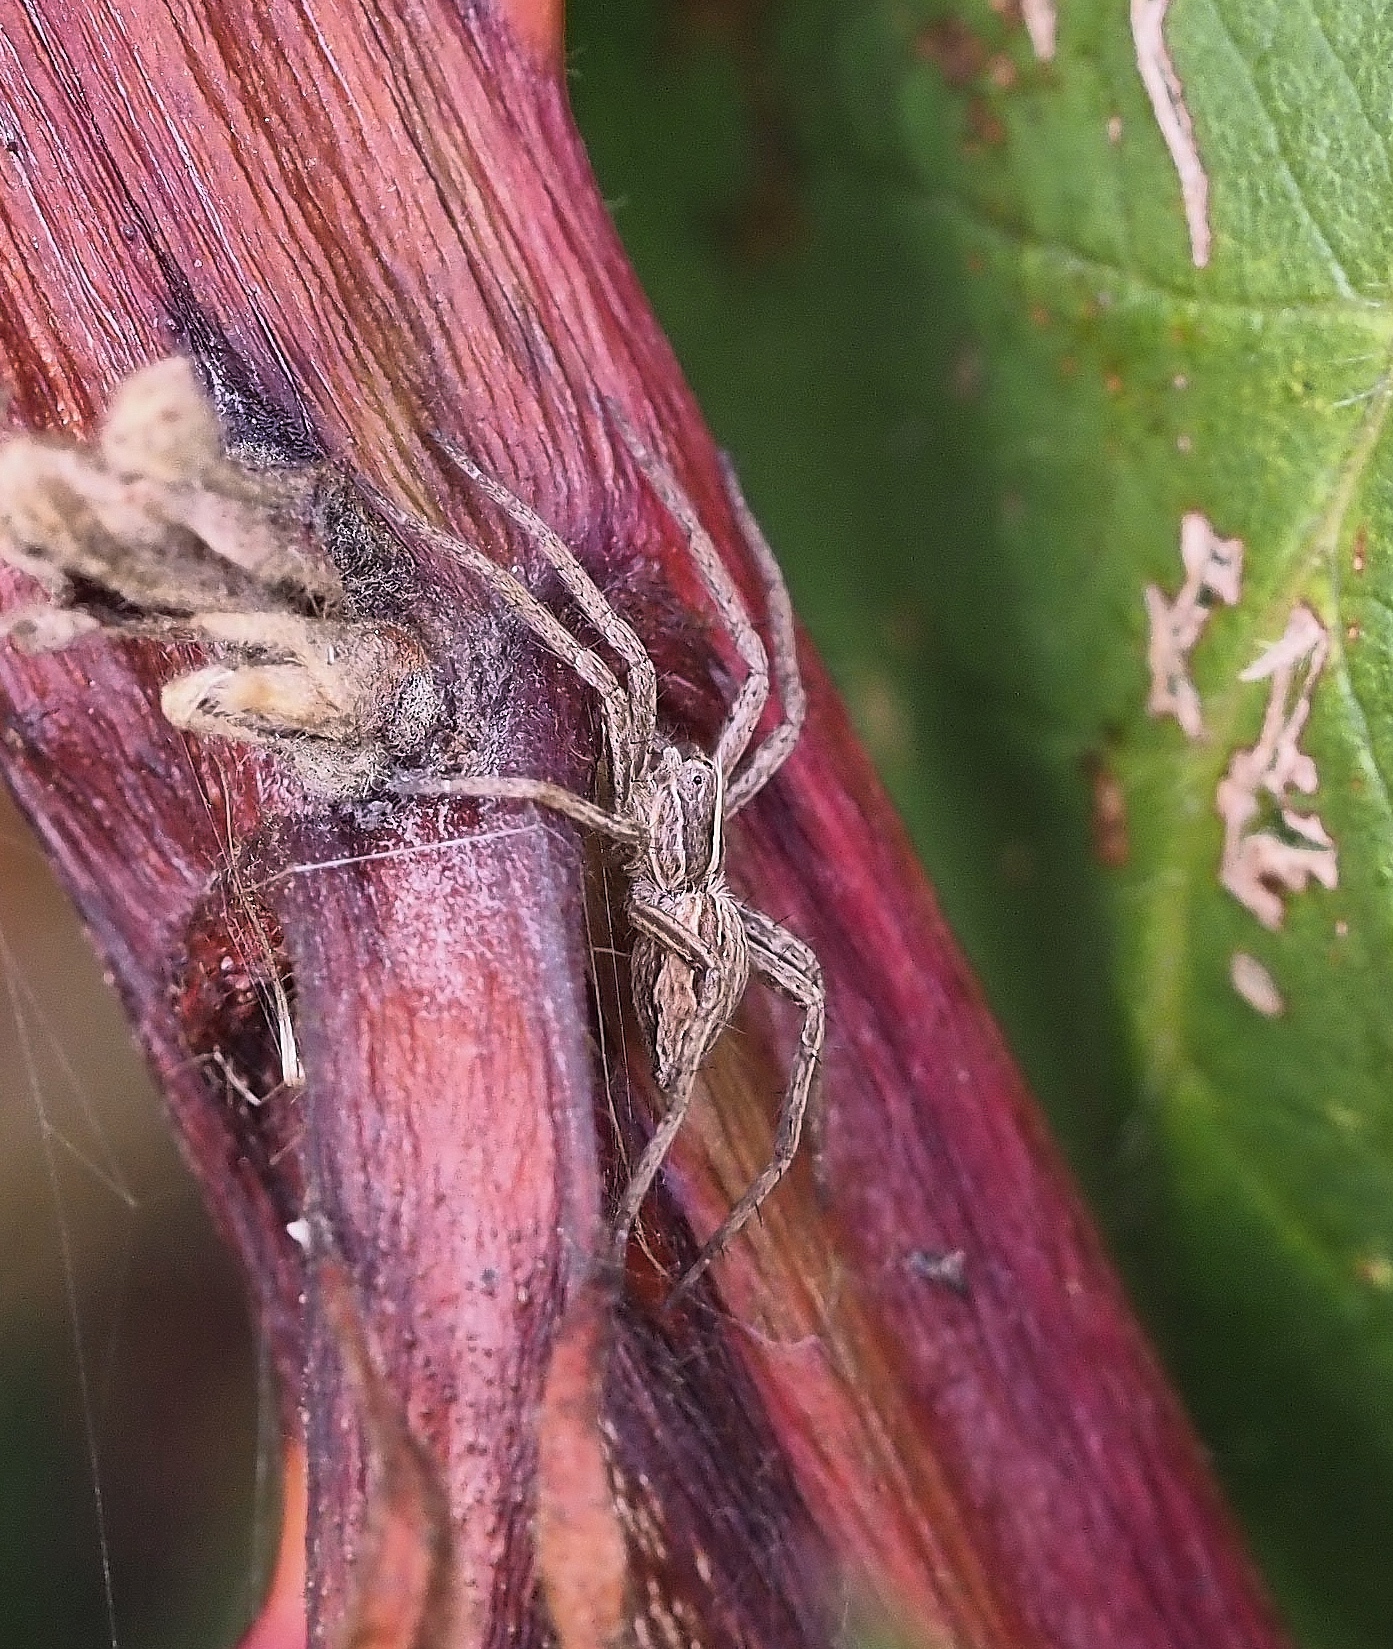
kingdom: Animalia
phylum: Arthropoda
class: Arachnida
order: Araneae
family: Pisauridae
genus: Pisaura
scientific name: Pisaura mirabilis
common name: Tent spider
